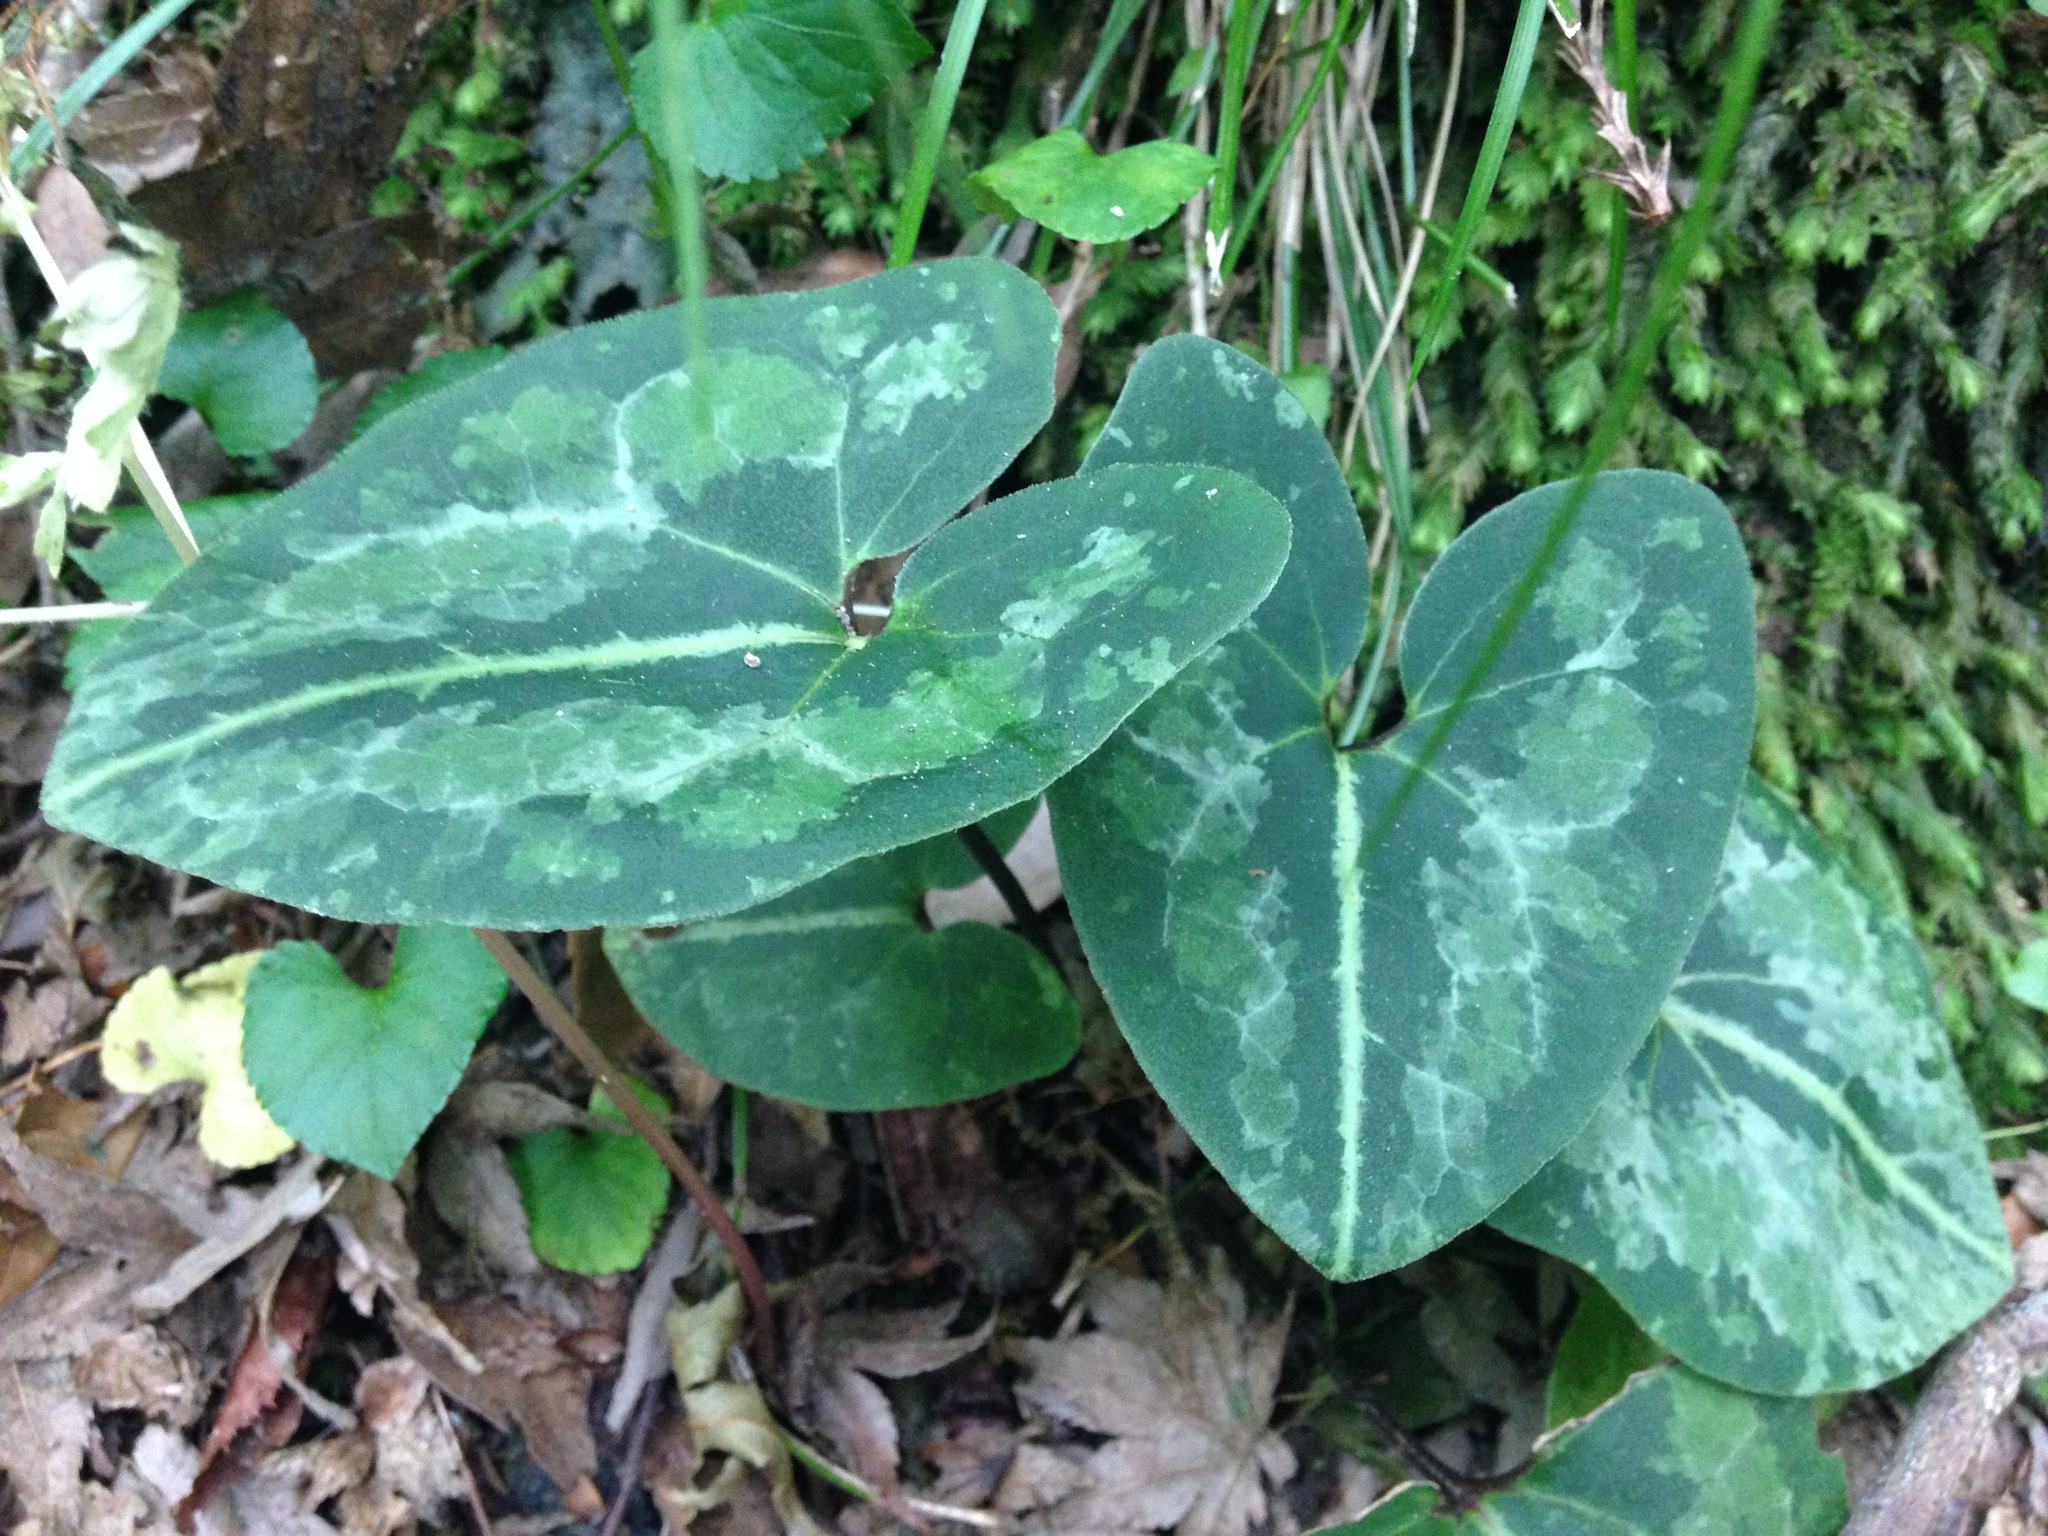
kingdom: Plantae
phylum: Tracheophyta
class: Magnoliopsida
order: Piperales
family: Aristolochiaceae
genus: Asarum
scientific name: Asarum asperum
